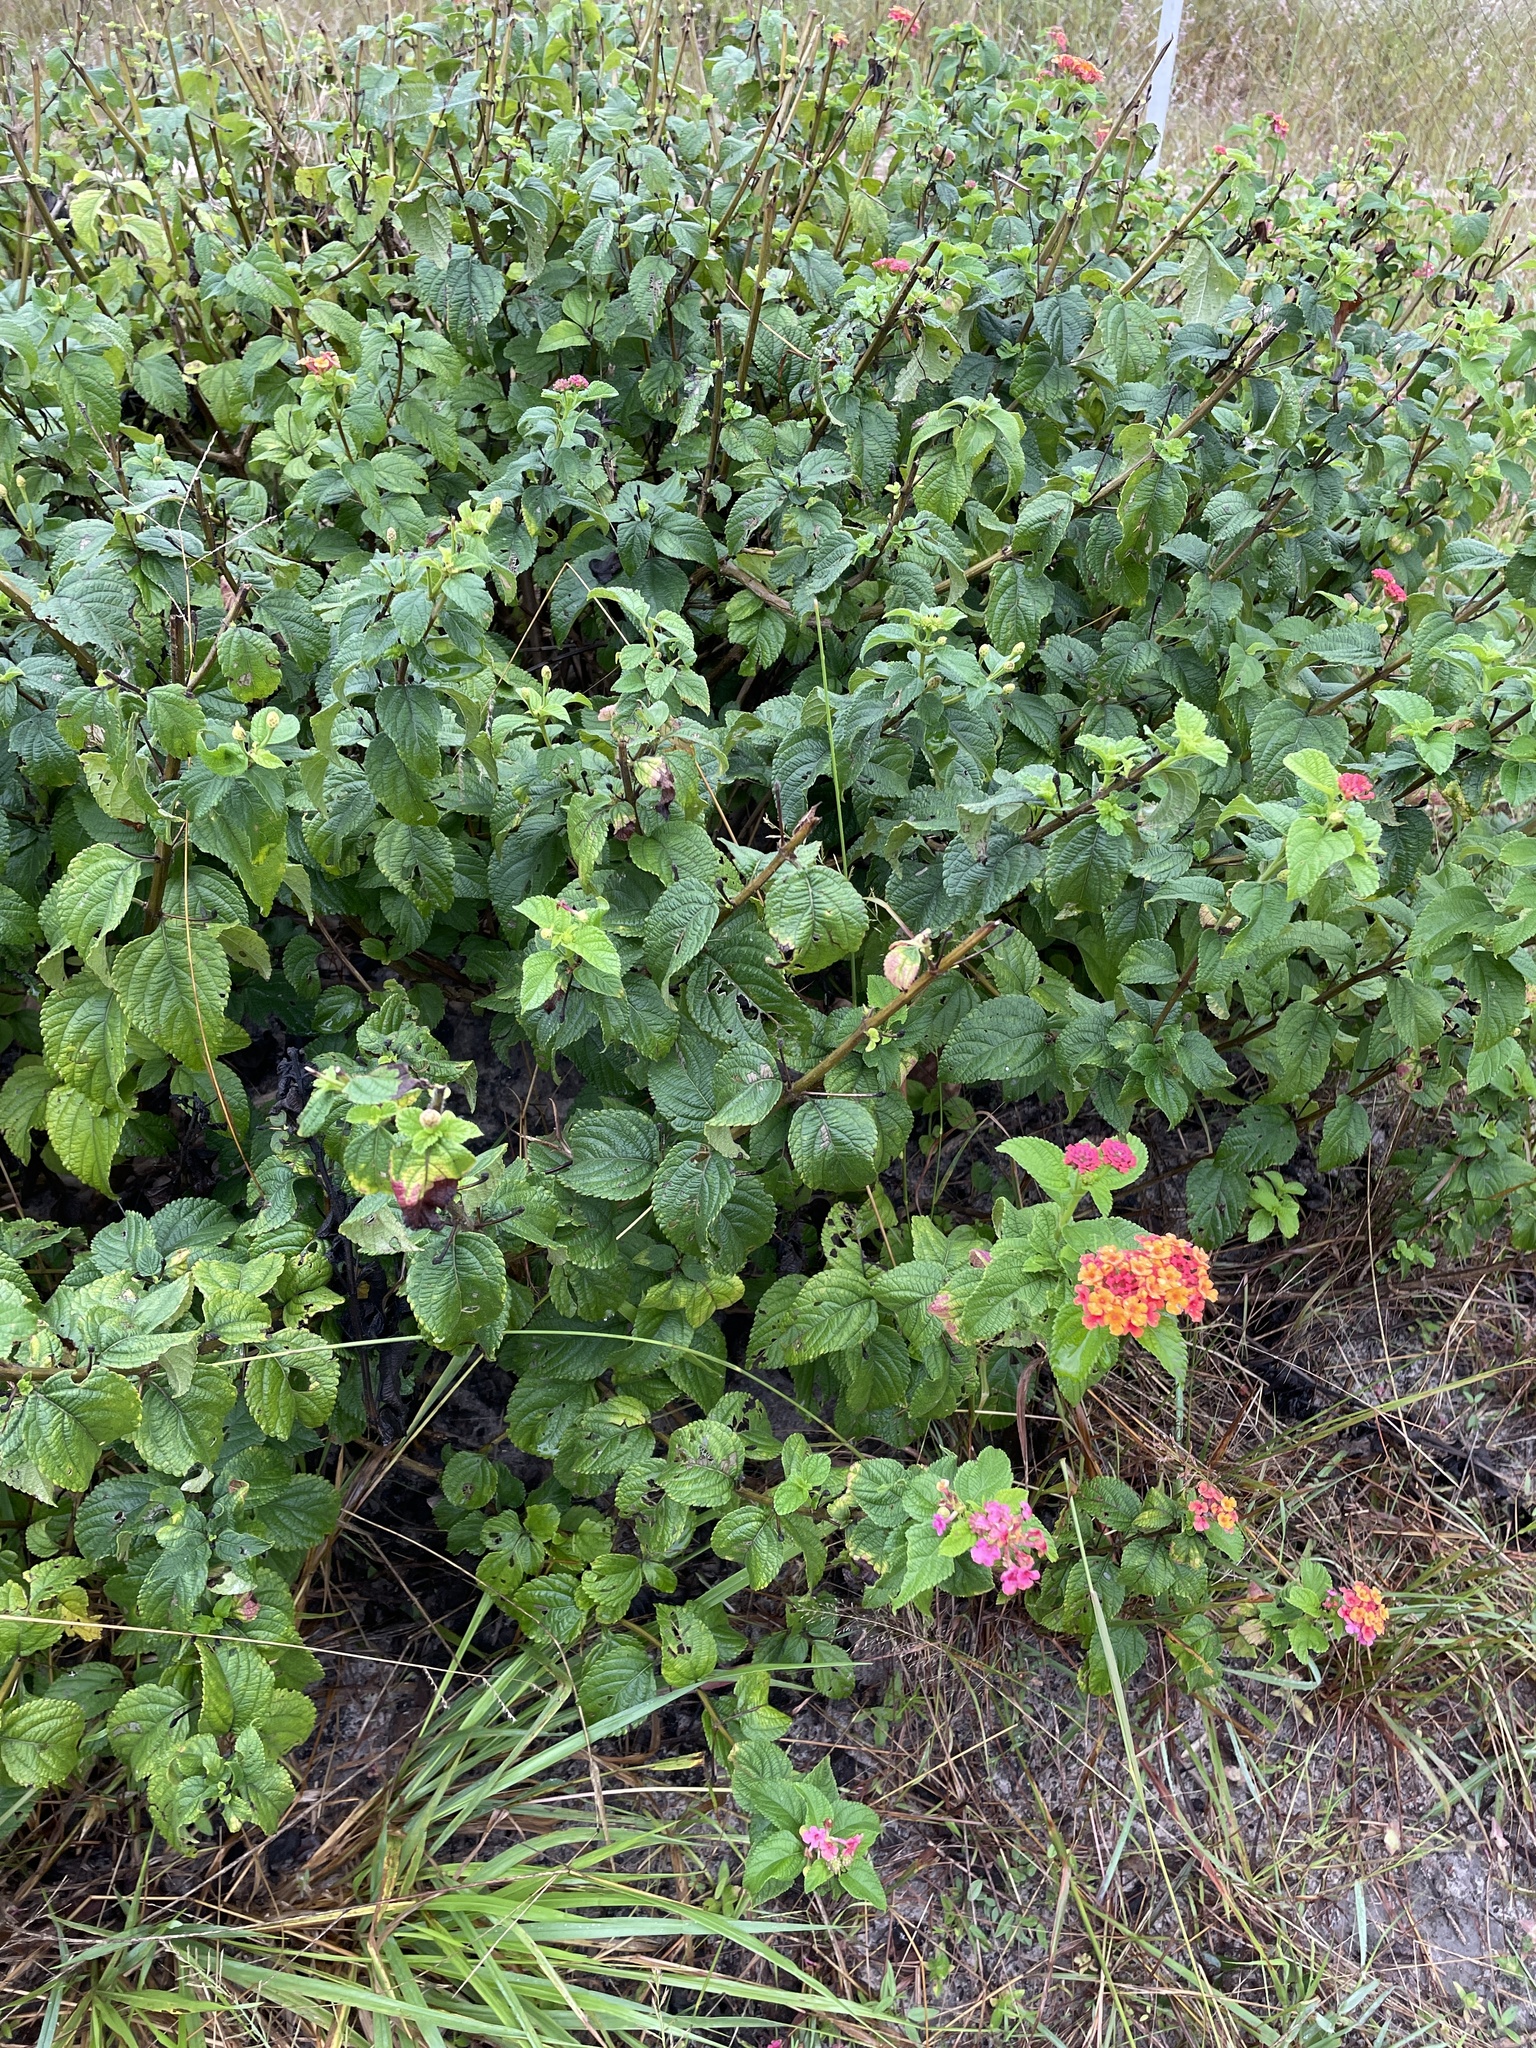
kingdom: Plantae
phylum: Tracheophyta
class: Magnoliopsida
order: Lamiales
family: Verbenaceae
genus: Lantana
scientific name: Lantana camara
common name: Lantana
